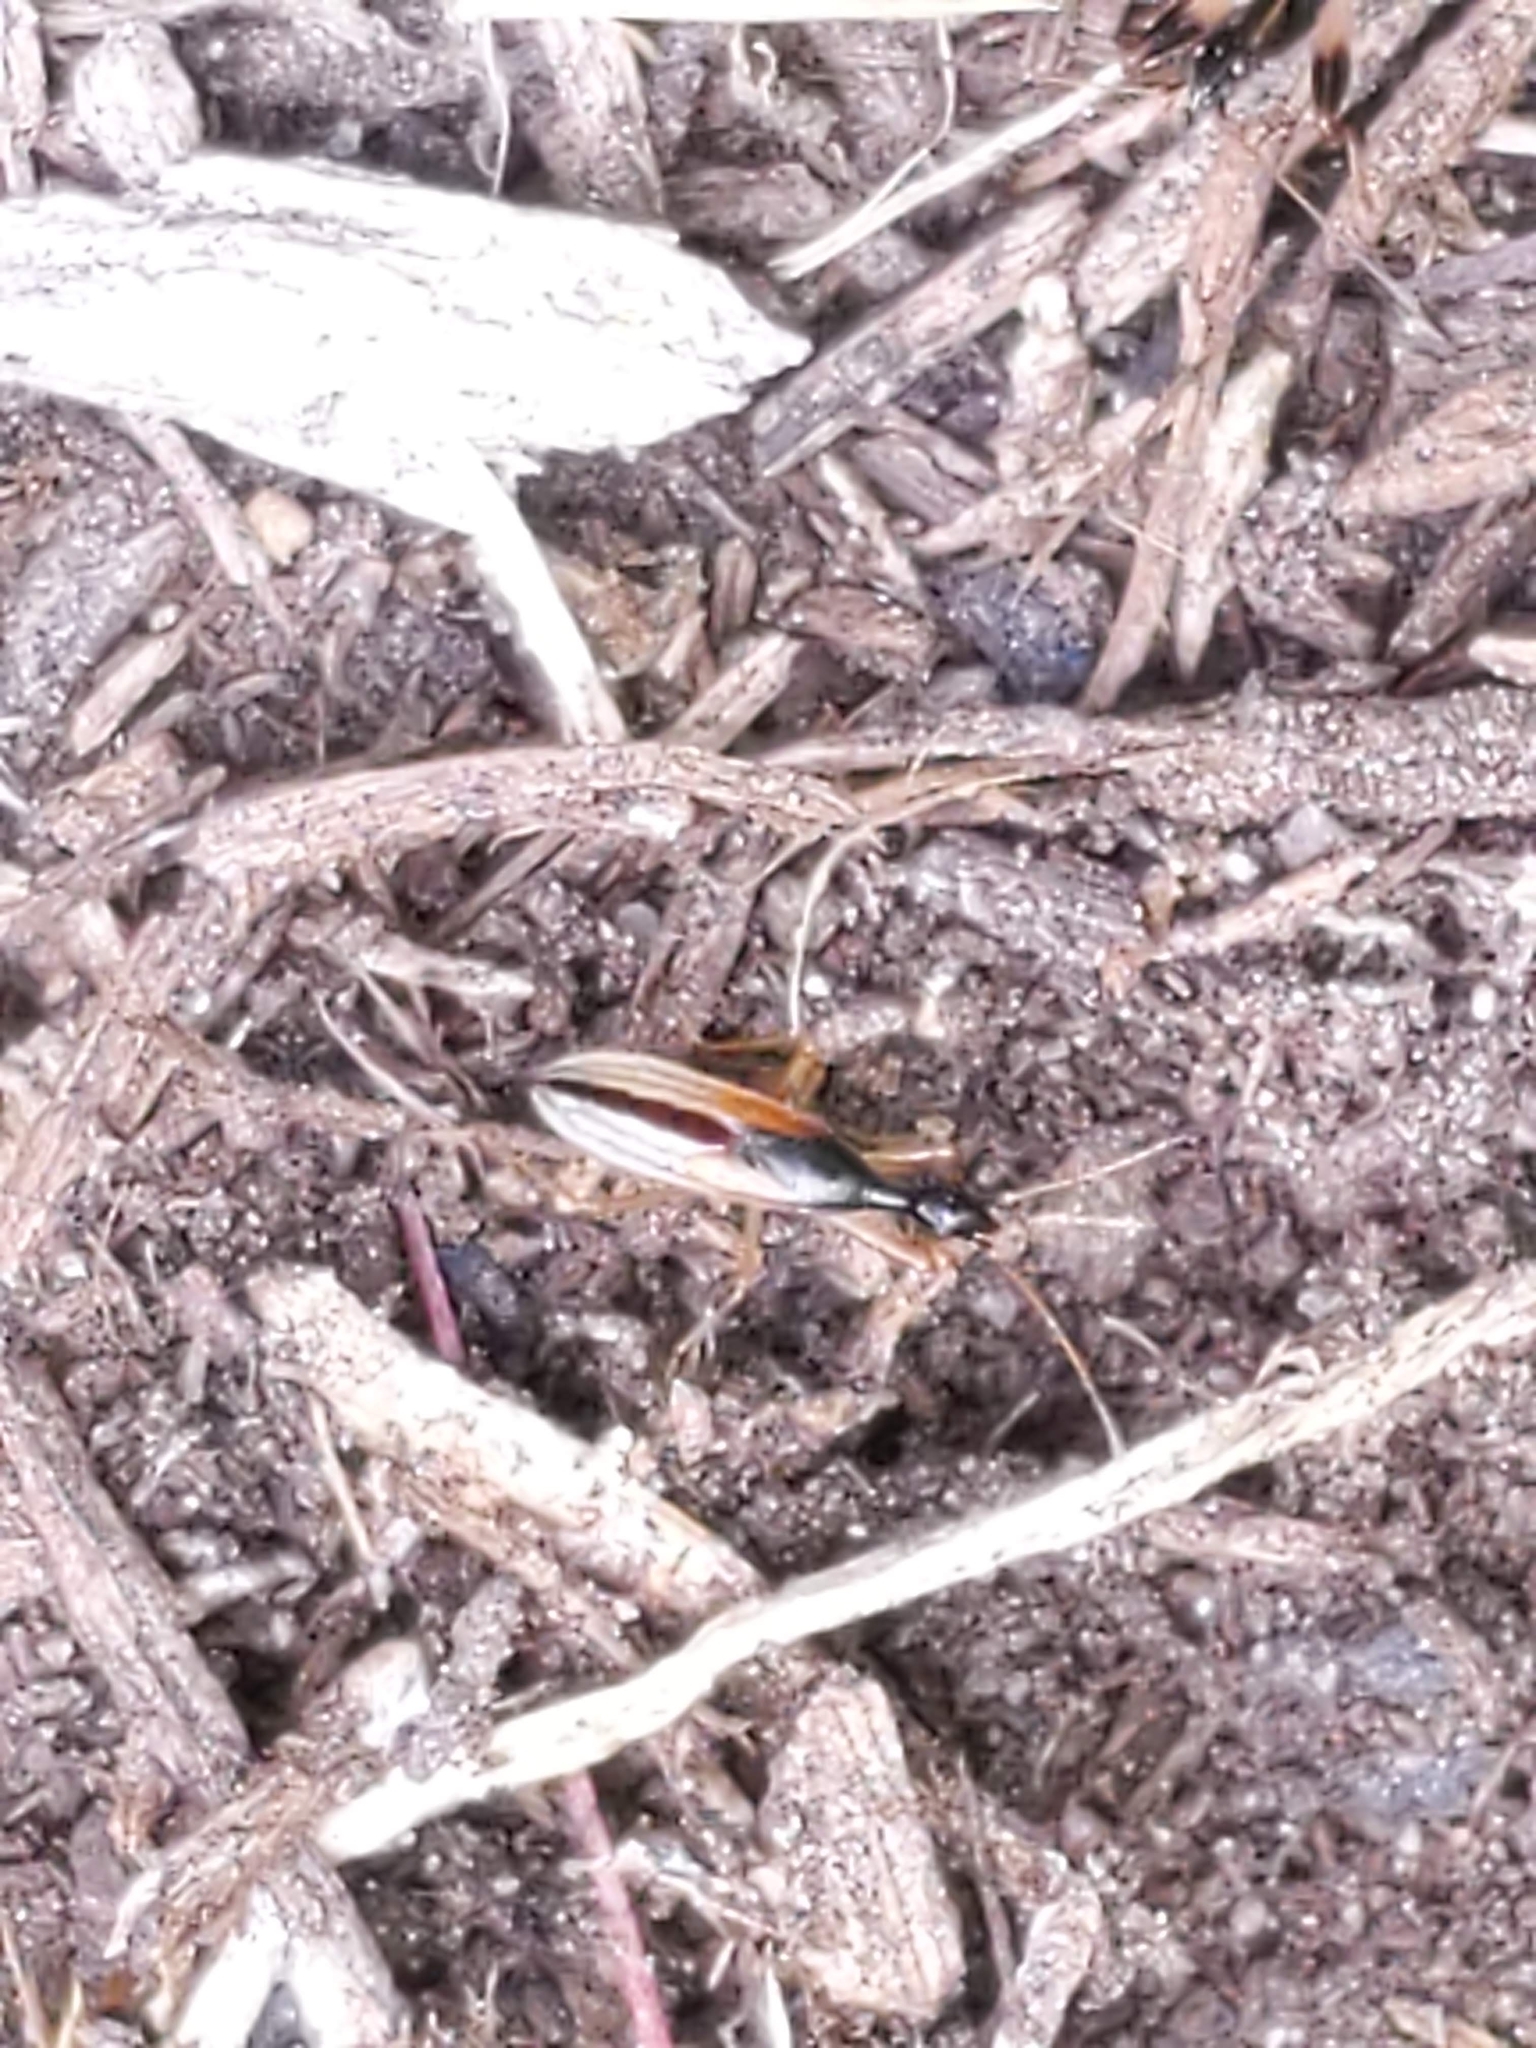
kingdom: Animalia
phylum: Arthropoda
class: Insecta
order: Hemiptera
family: Rhyparochromidae
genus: Myodocha
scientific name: Myodocha serripes
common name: Long-necked seed bug
